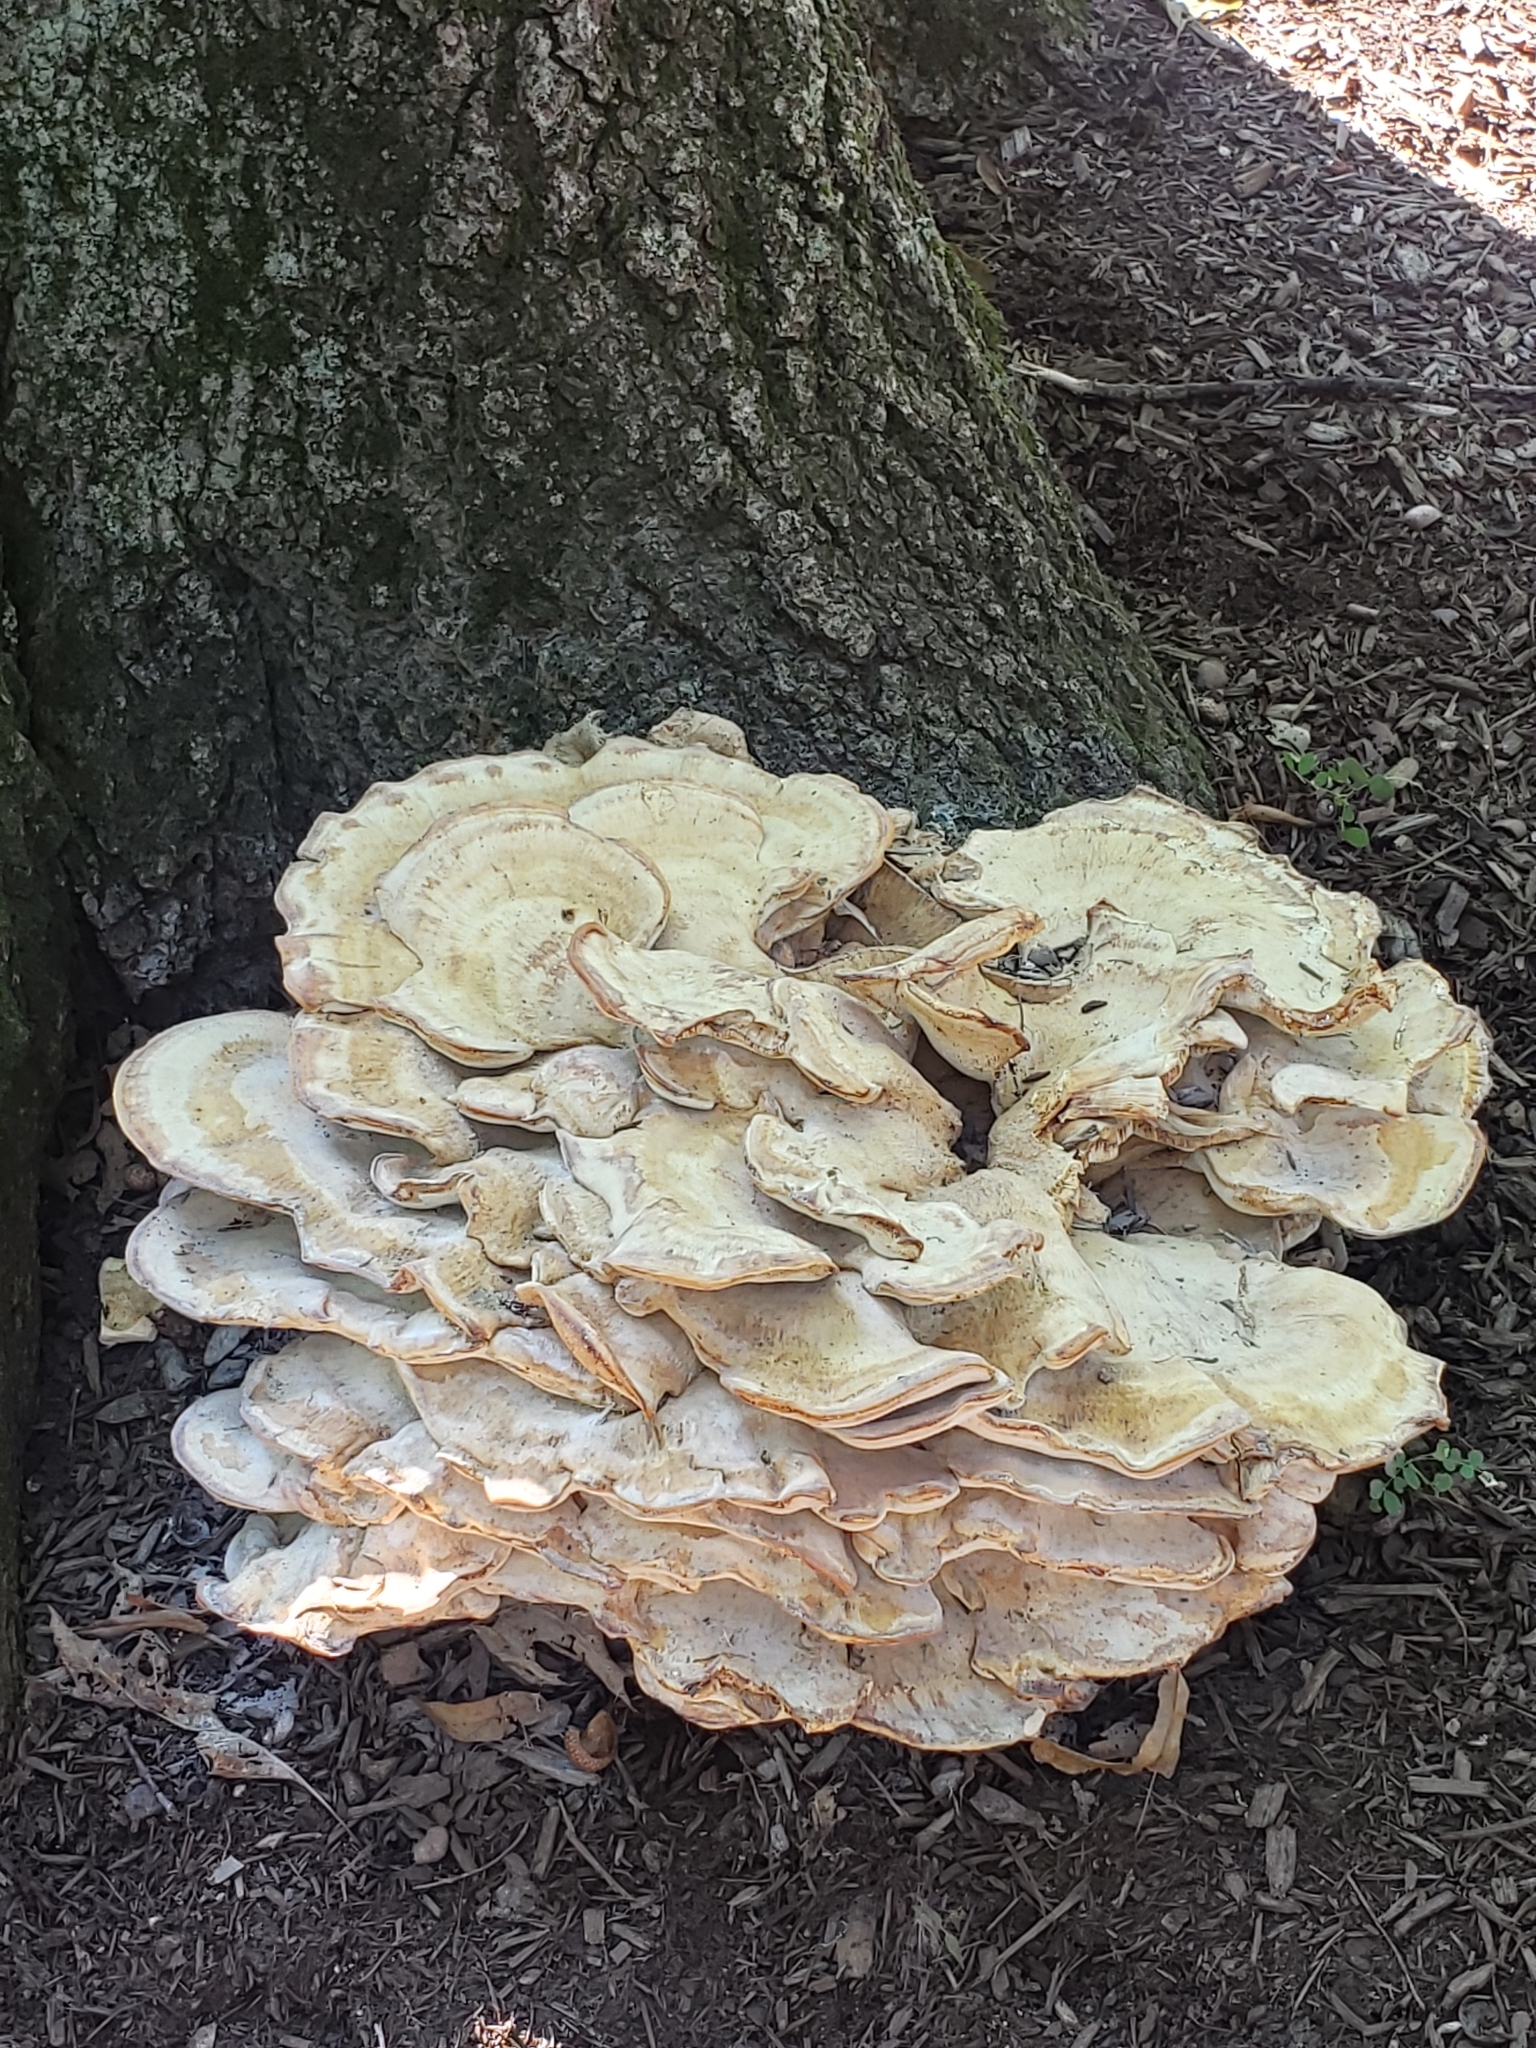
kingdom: Fungi
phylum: Basidiomycota
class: Agaricomycetes
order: Polyporales
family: Meripilaceae
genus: Meripilus
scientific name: Meripilus sumstinei
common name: Black-staining polypore
